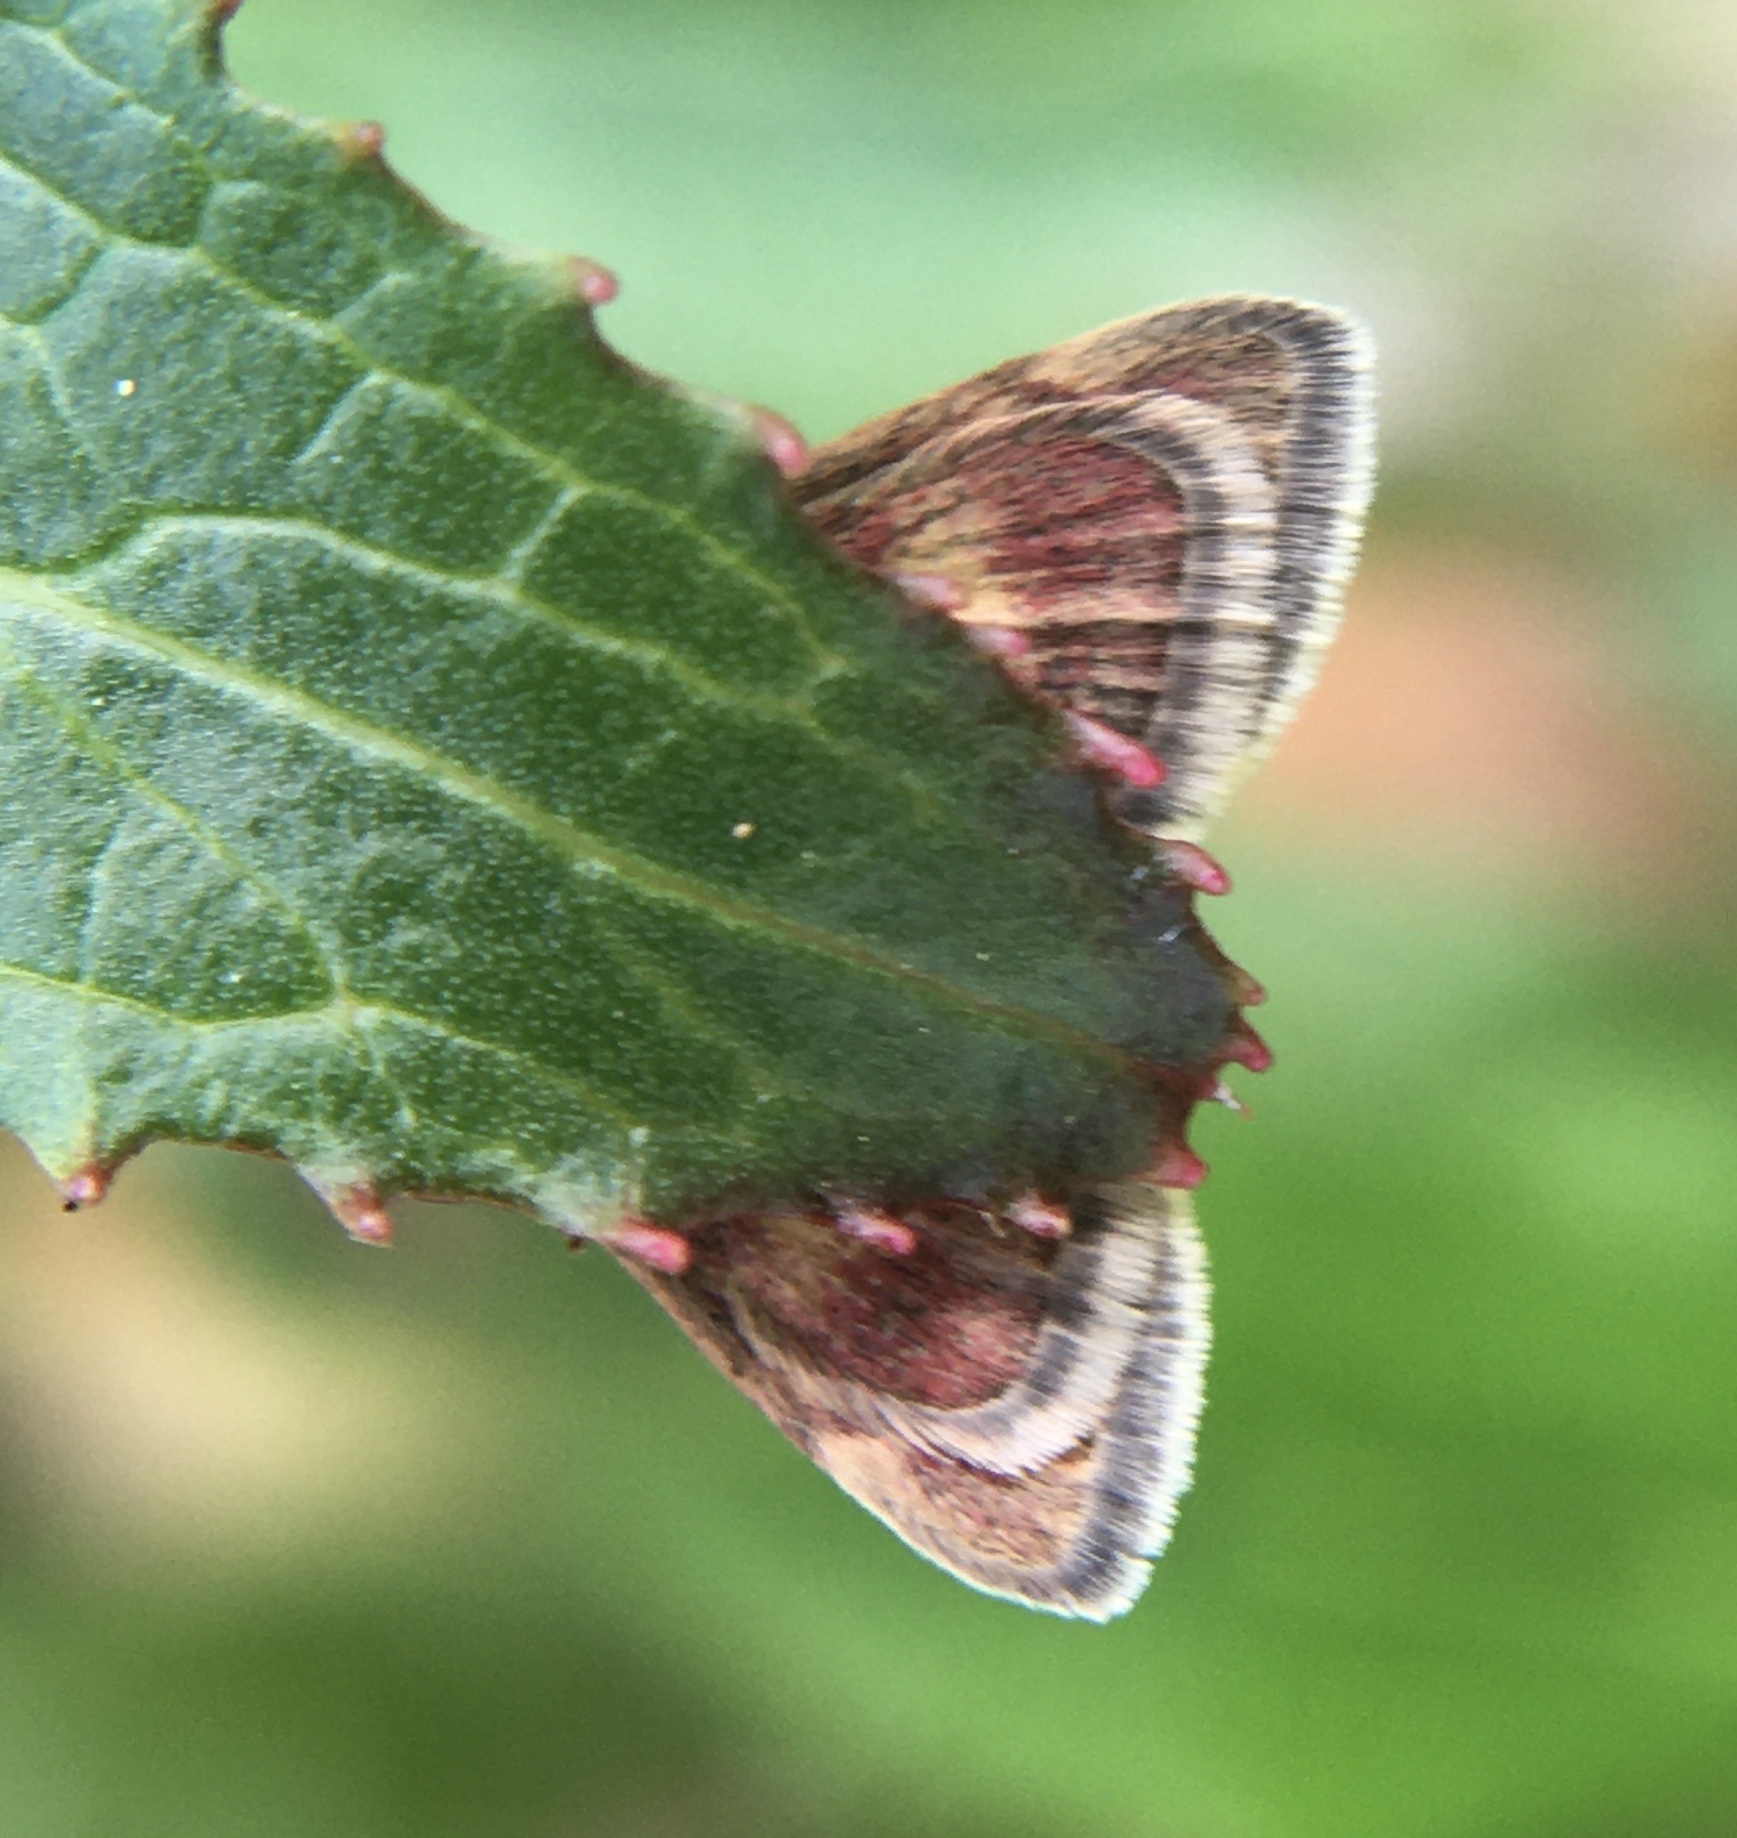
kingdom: Animalia
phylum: Arthropoda
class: Insecta
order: Lepidoptera
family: Crambidae
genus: Pyrausta
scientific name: Pyrausta aurata
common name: Small purple & gold
